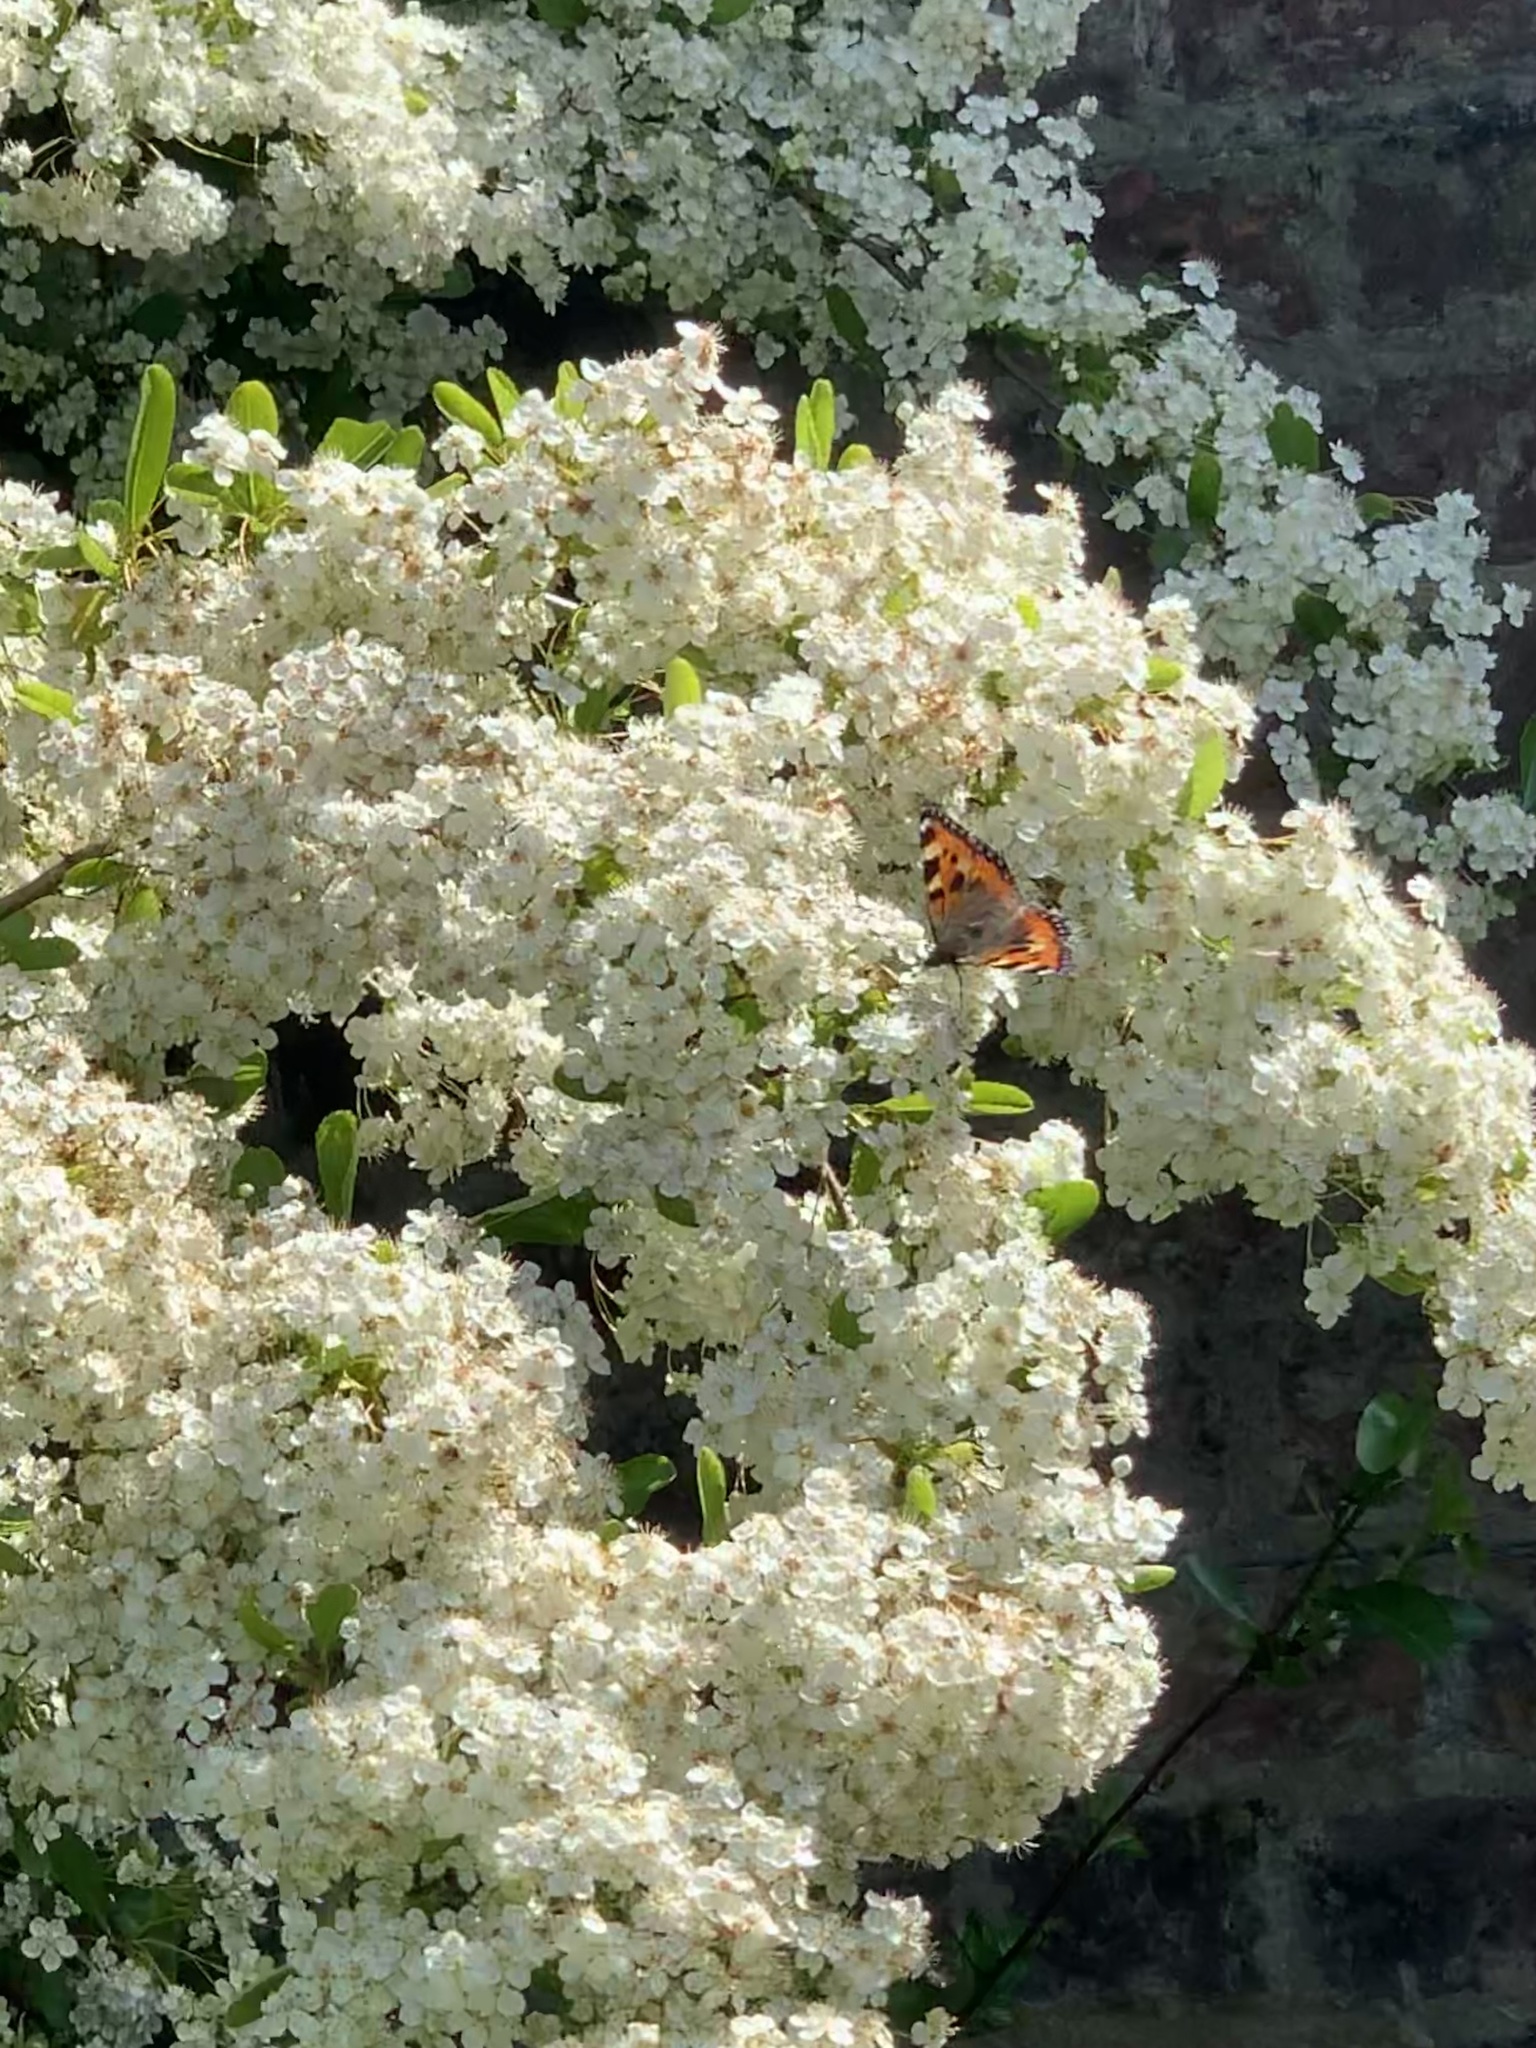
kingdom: Animalia
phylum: Arthropoda
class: Insecta
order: Lepidoptera
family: Nymphalidae
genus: Aglais
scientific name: Aglais urticae
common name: Small tortoiseshell
